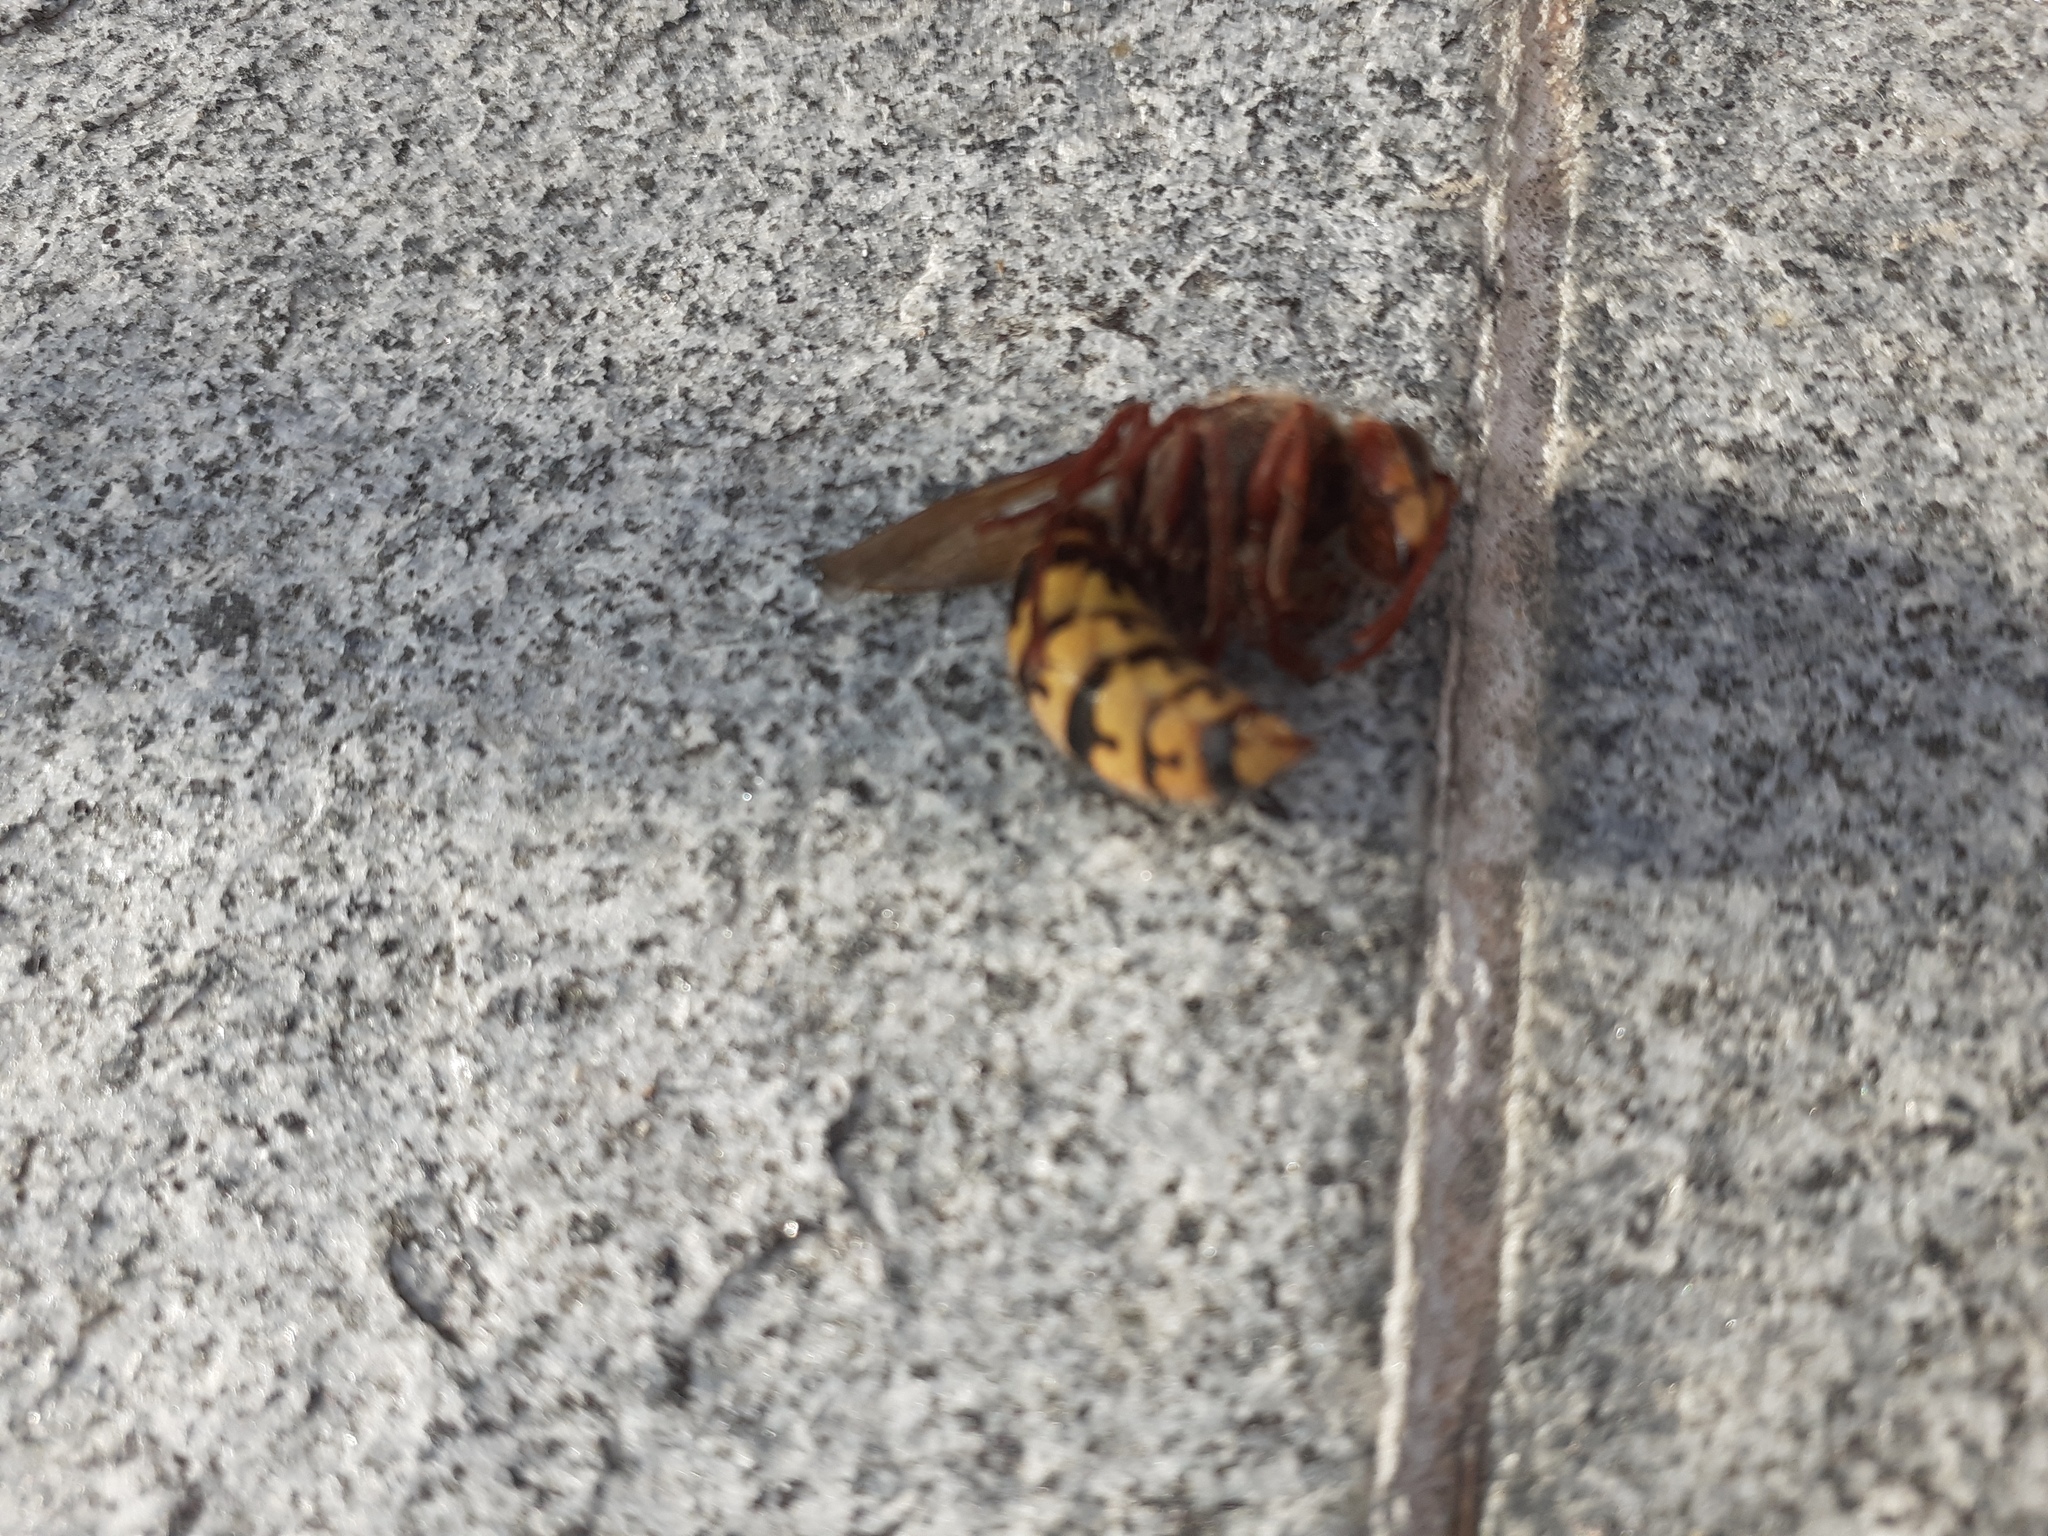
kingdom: Animalia
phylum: Arthropoda
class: Insecta
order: Hymenoptera
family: Vespidae
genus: Vespa
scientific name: Vespa crabro
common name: Hornet
